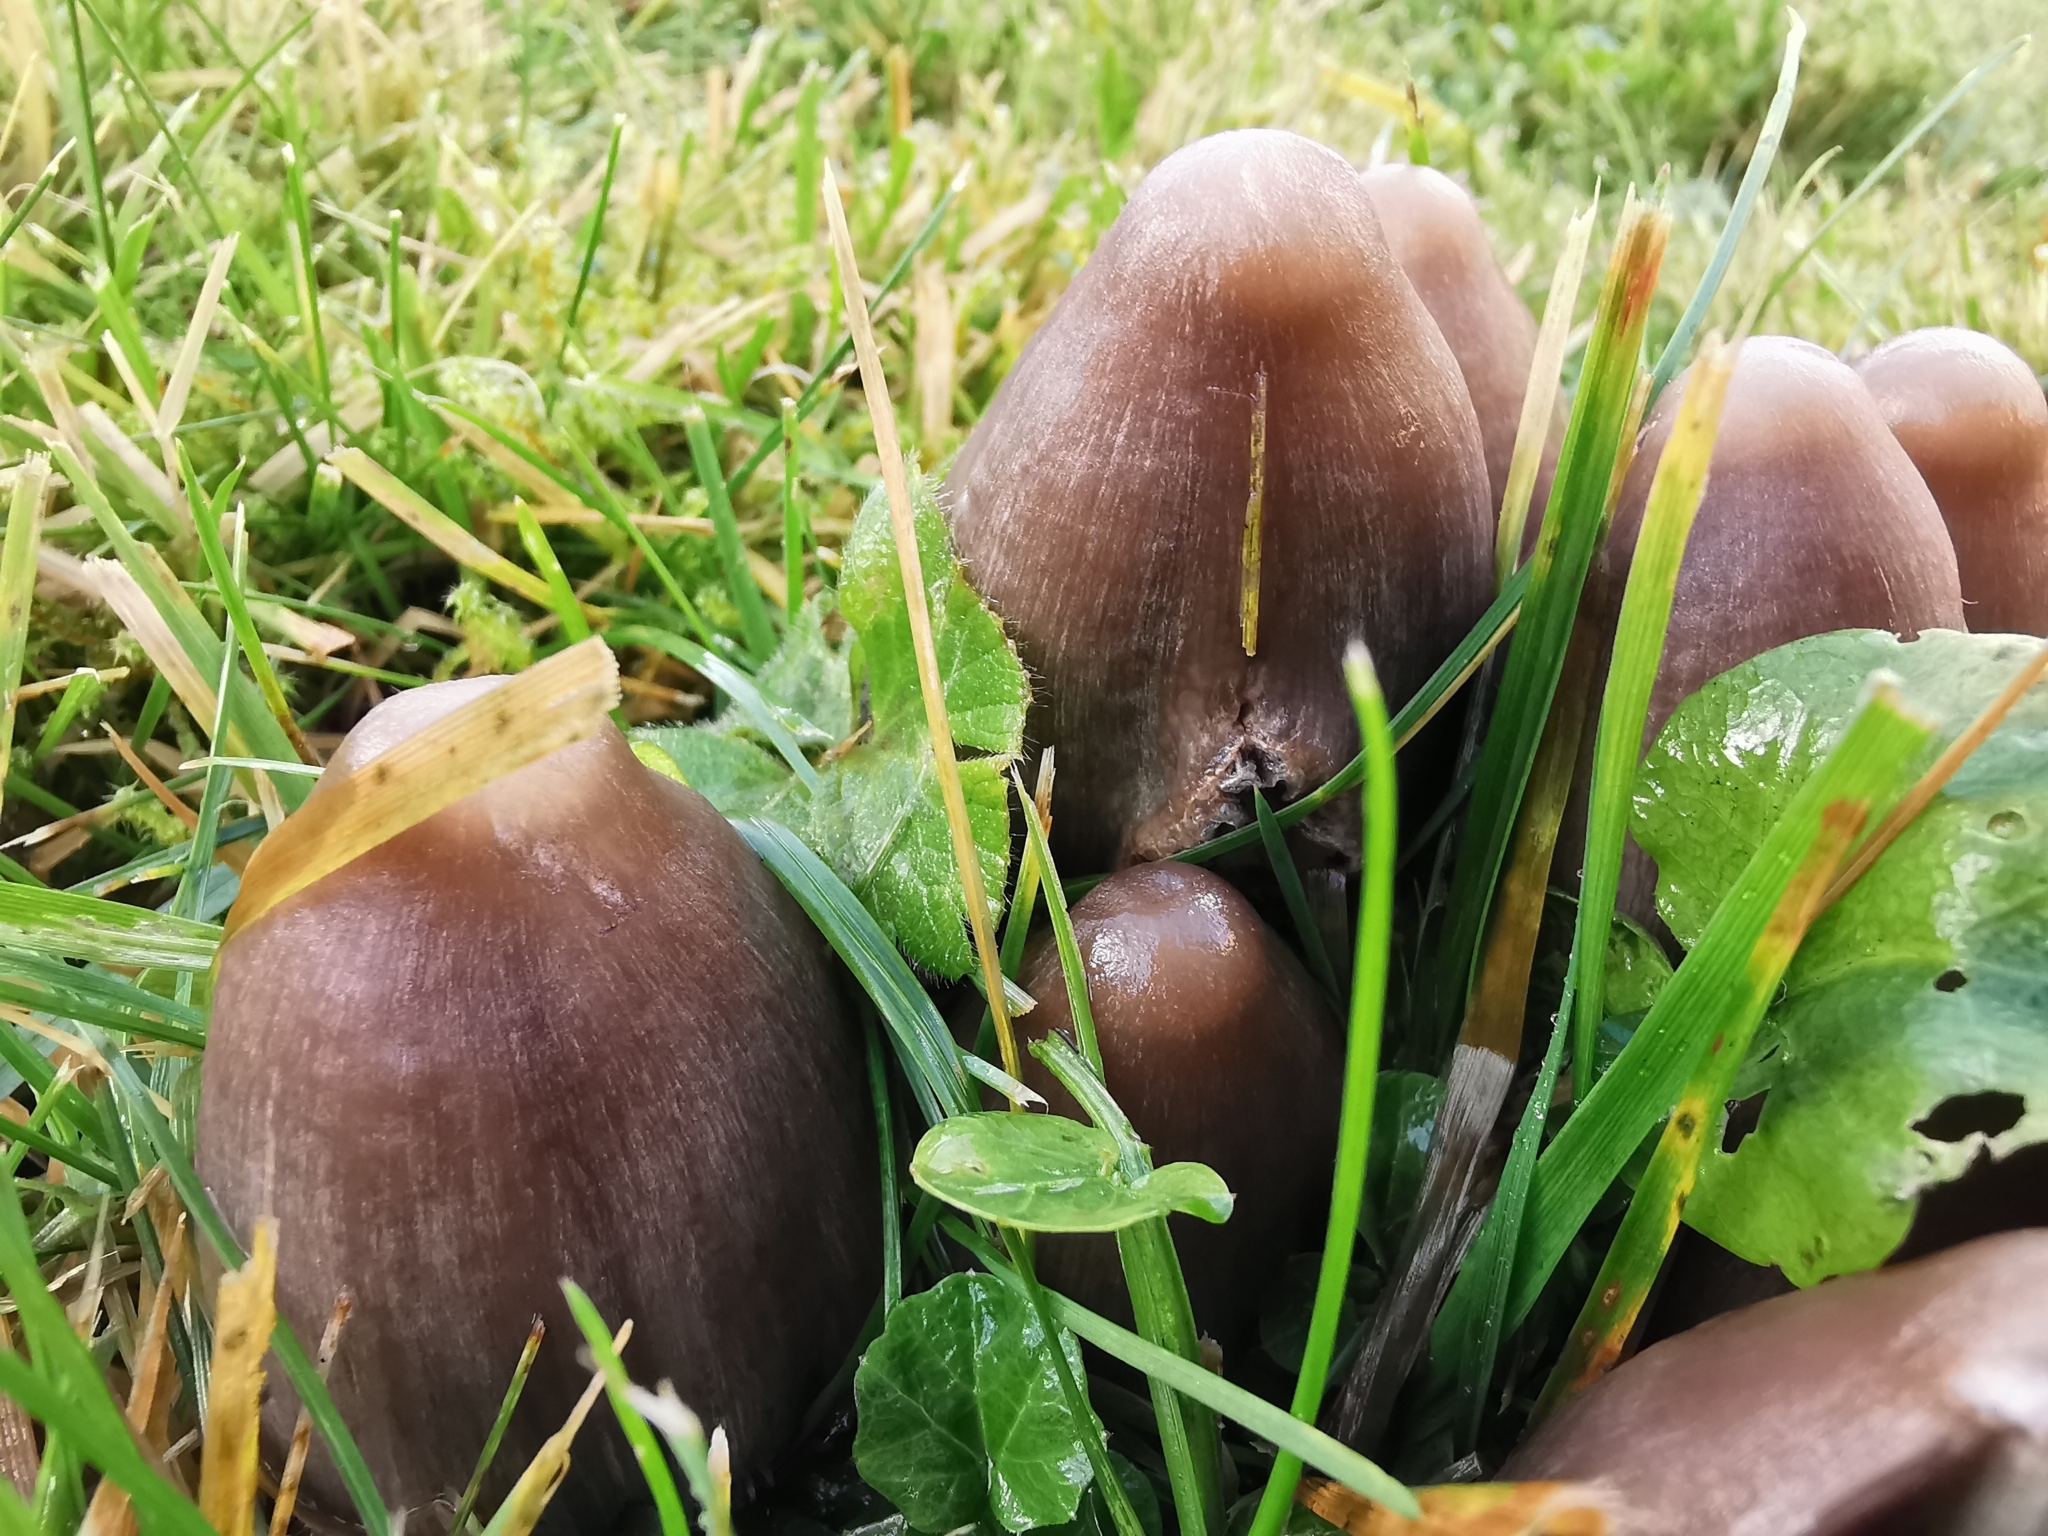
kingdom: Fungi
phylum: Basidiomycota
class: Agaricomycetes
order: Agaricales
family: Psathyrellaceae
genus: Coprinopsis
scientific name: Coprinopsis acuminata
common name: Humpback inkcap
